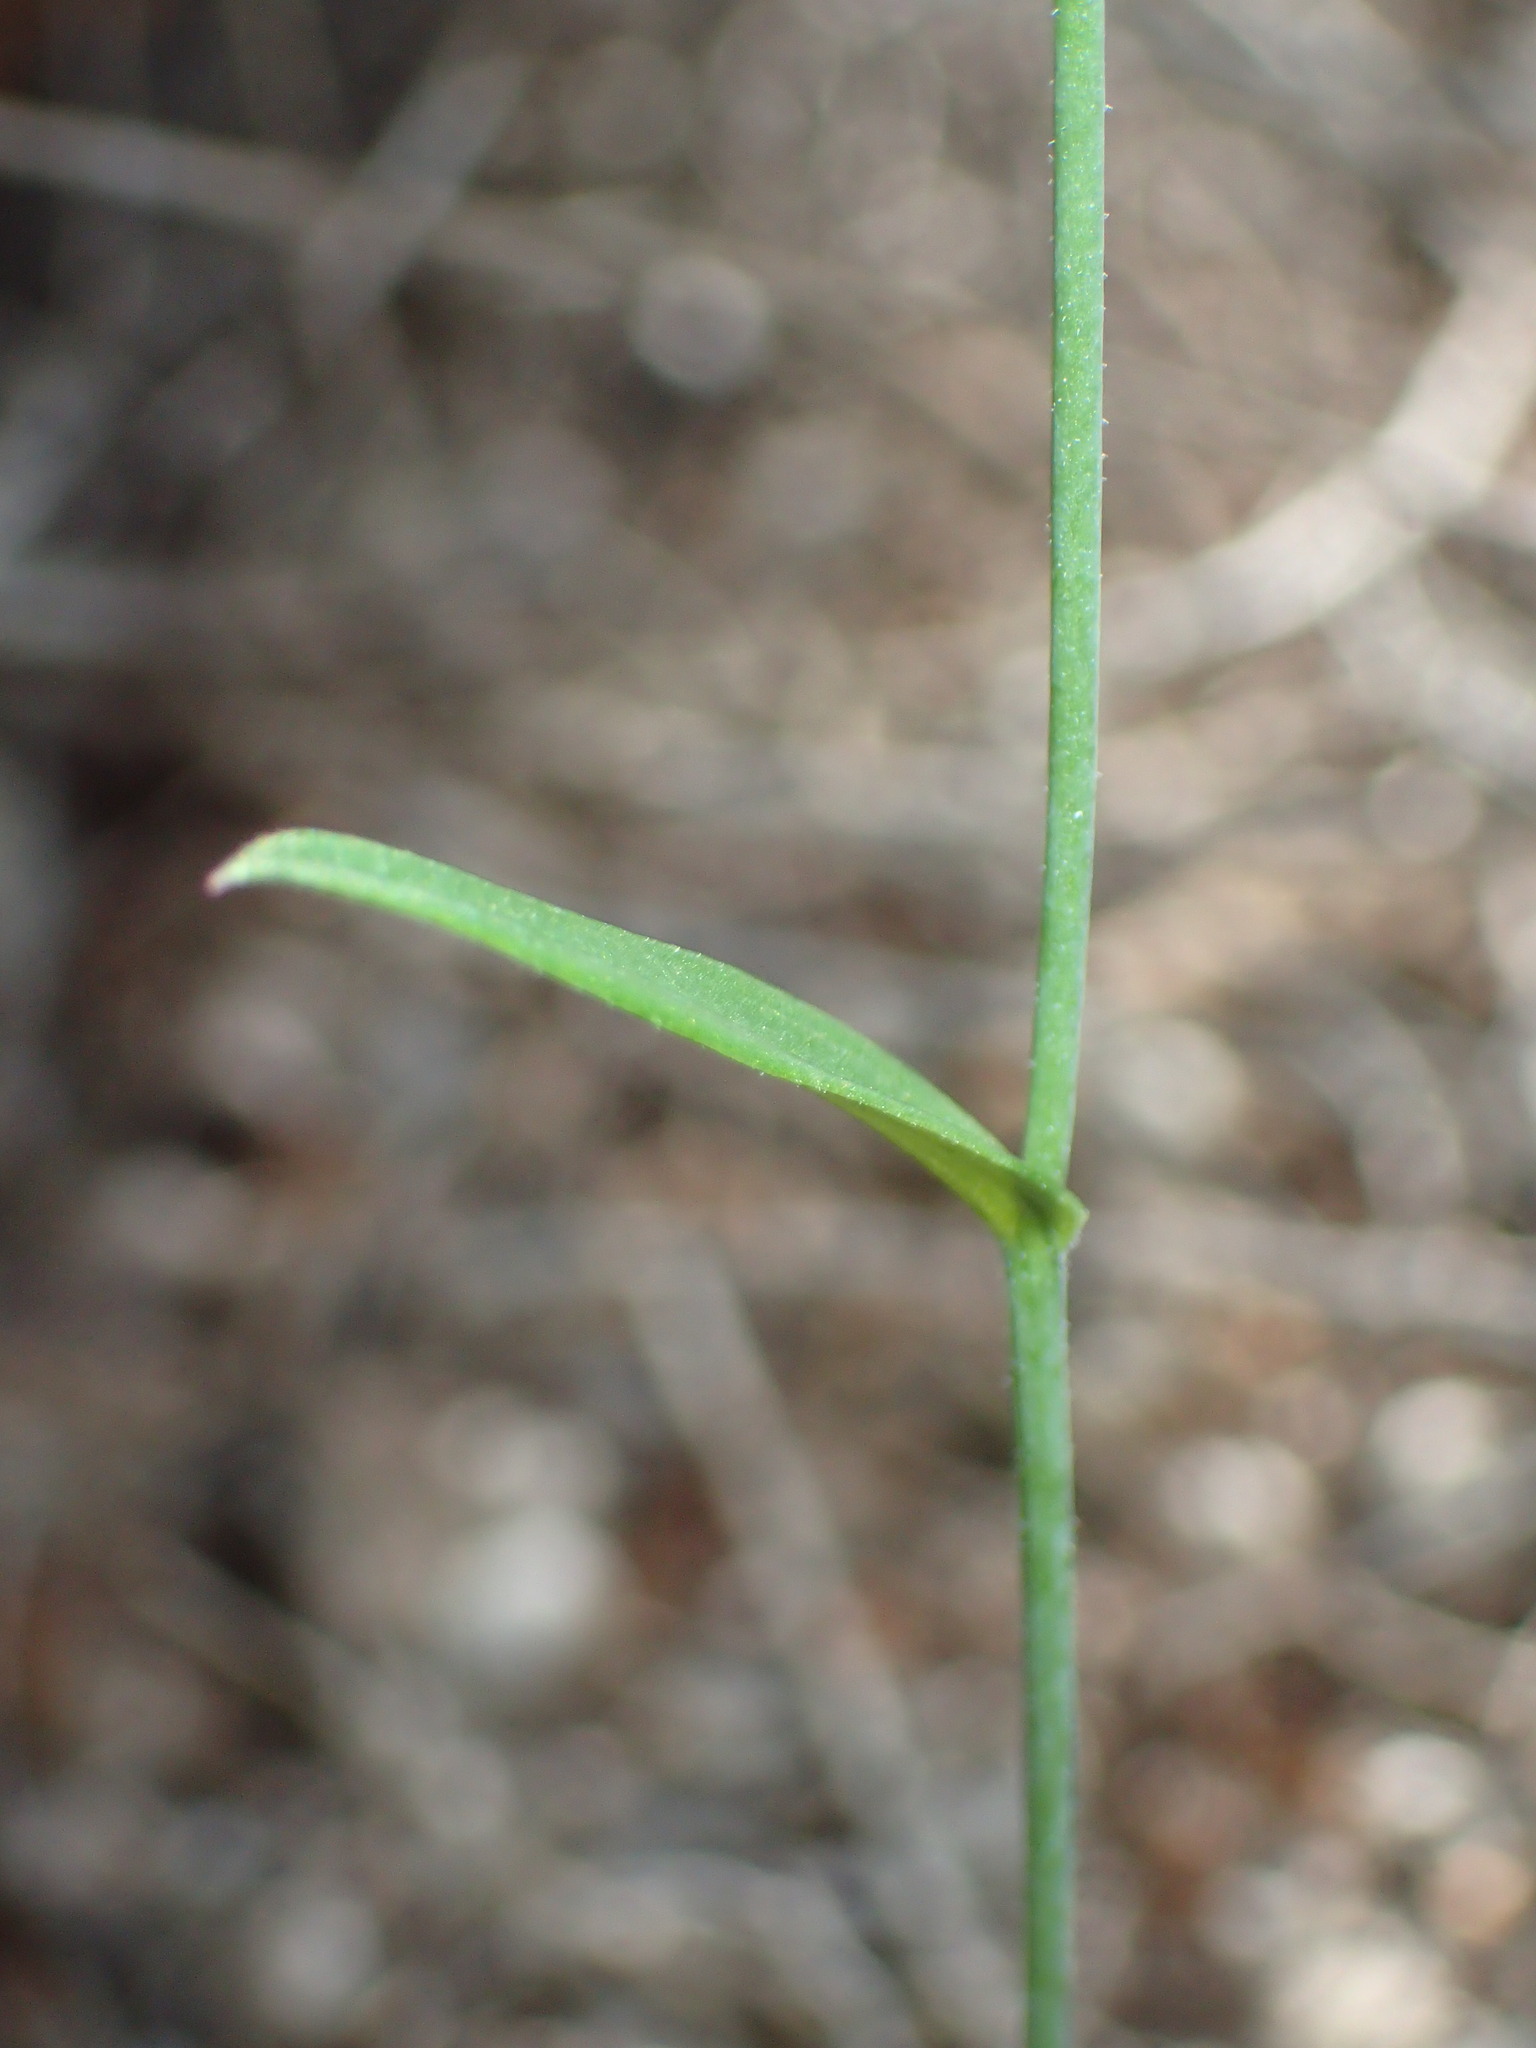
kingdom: Plantae
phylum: Tracheophyta
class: Liliopsida
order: Asparagales
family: Orchidaceae
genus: Eriochilus
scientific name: Eriochilus dilatatus
